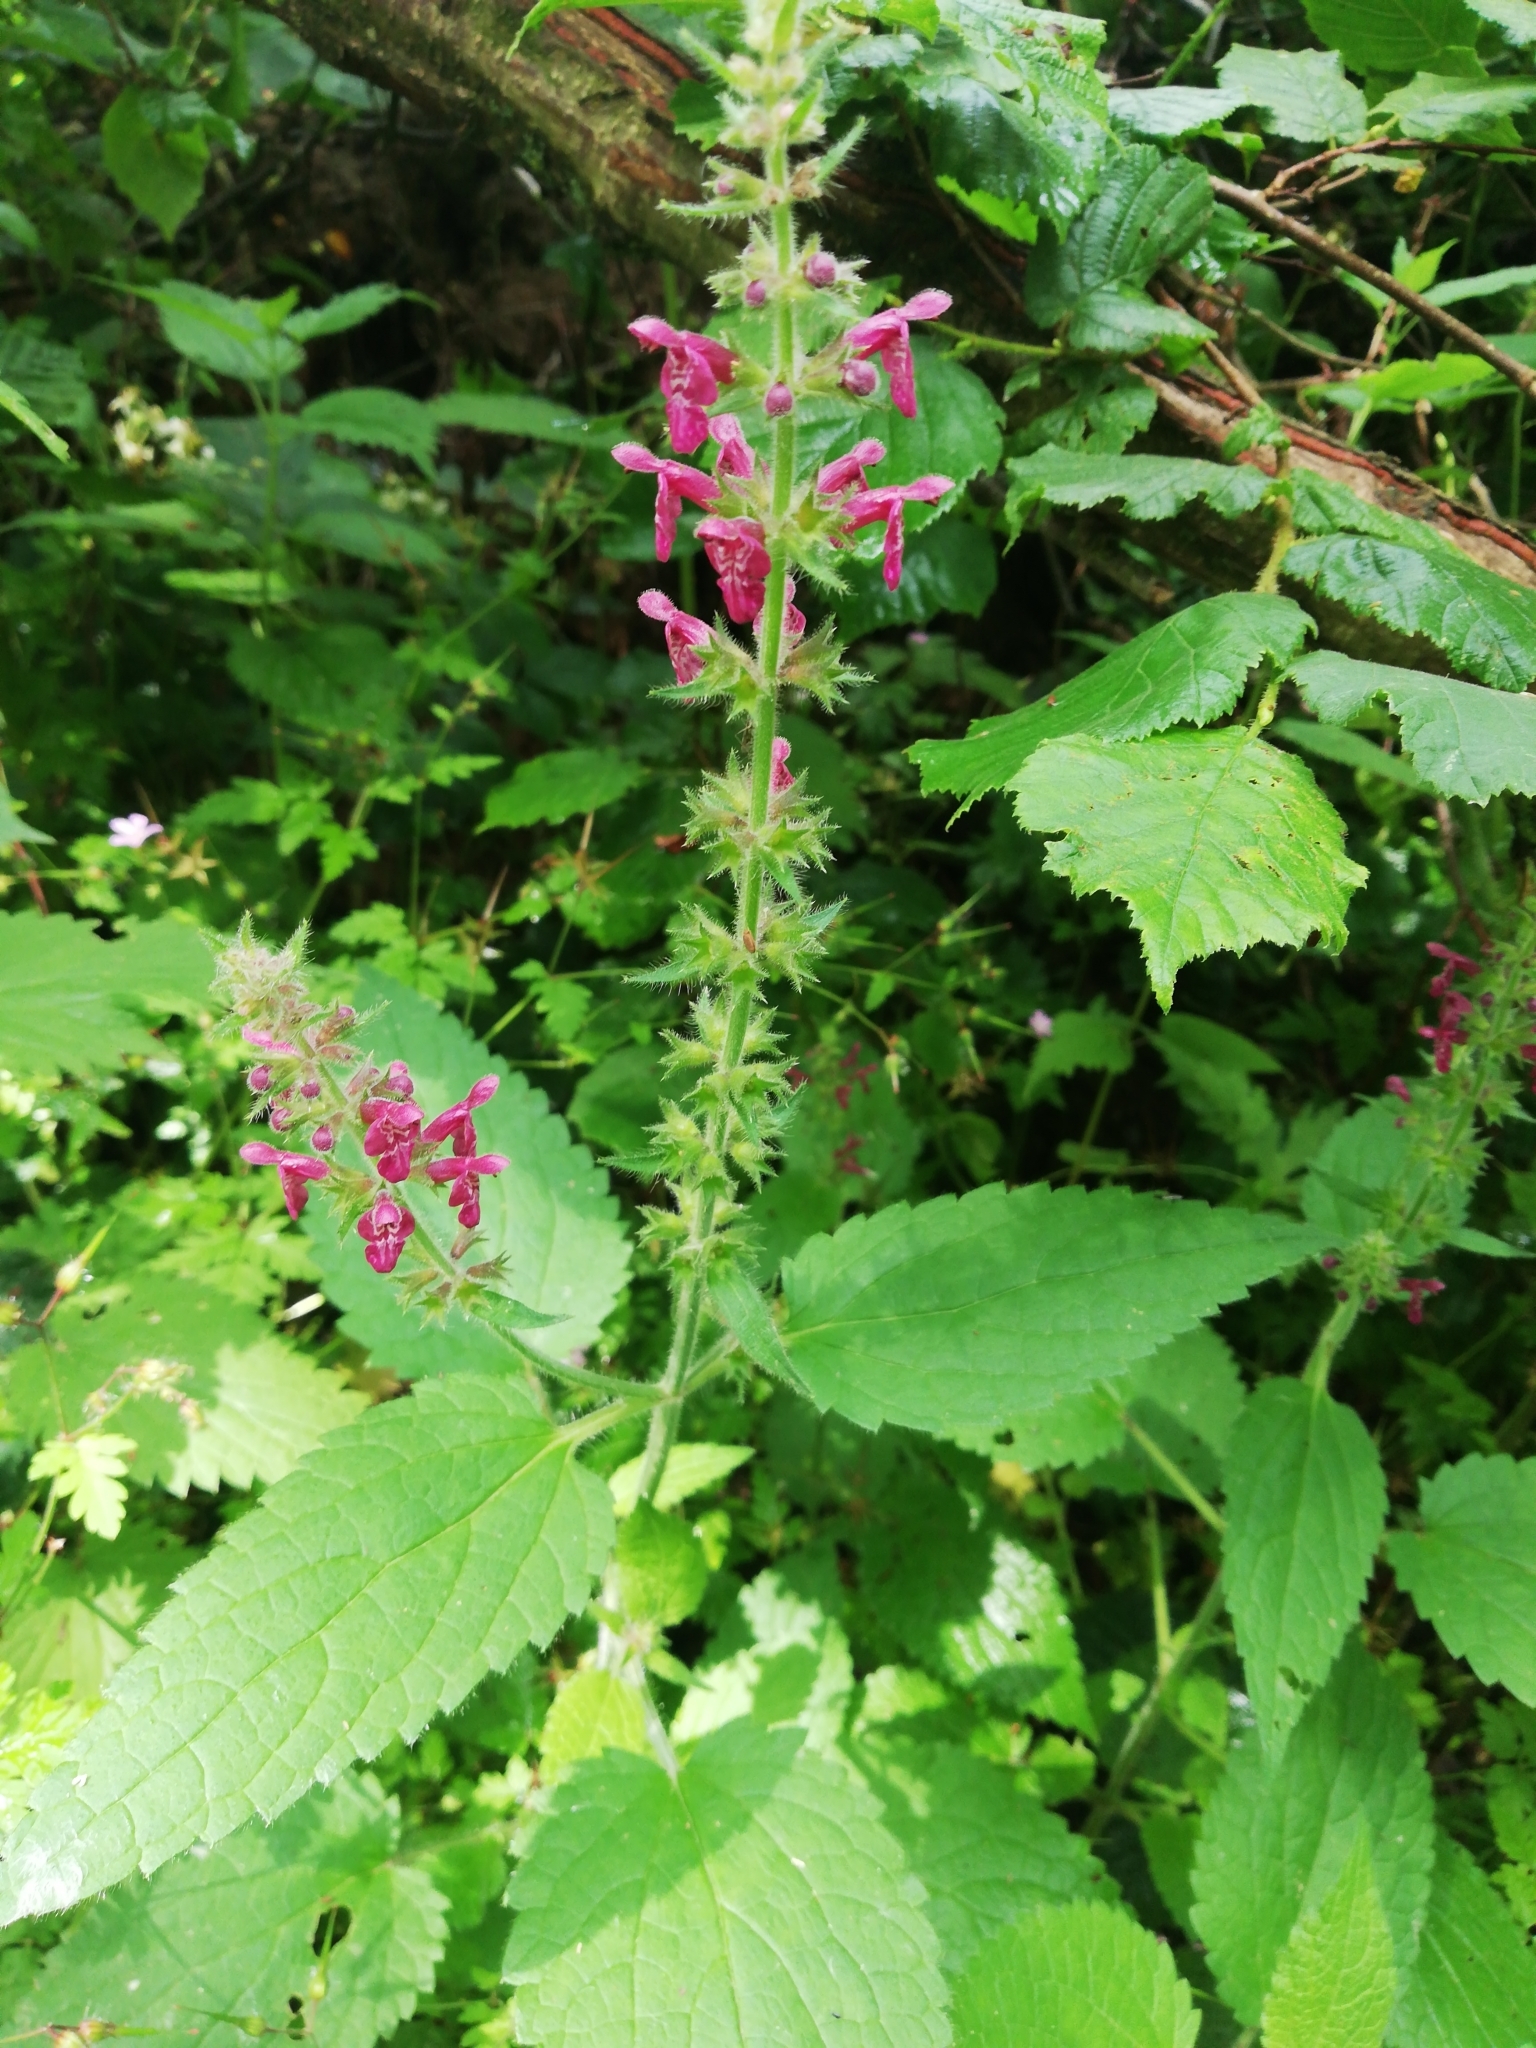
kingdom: Plantae
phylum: Tracheophyta
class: Magnoliopsida
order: Lamiales
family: Lamiaceae
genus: Stachys
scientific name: Stachys sylvatica
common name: Hedge woundwort
